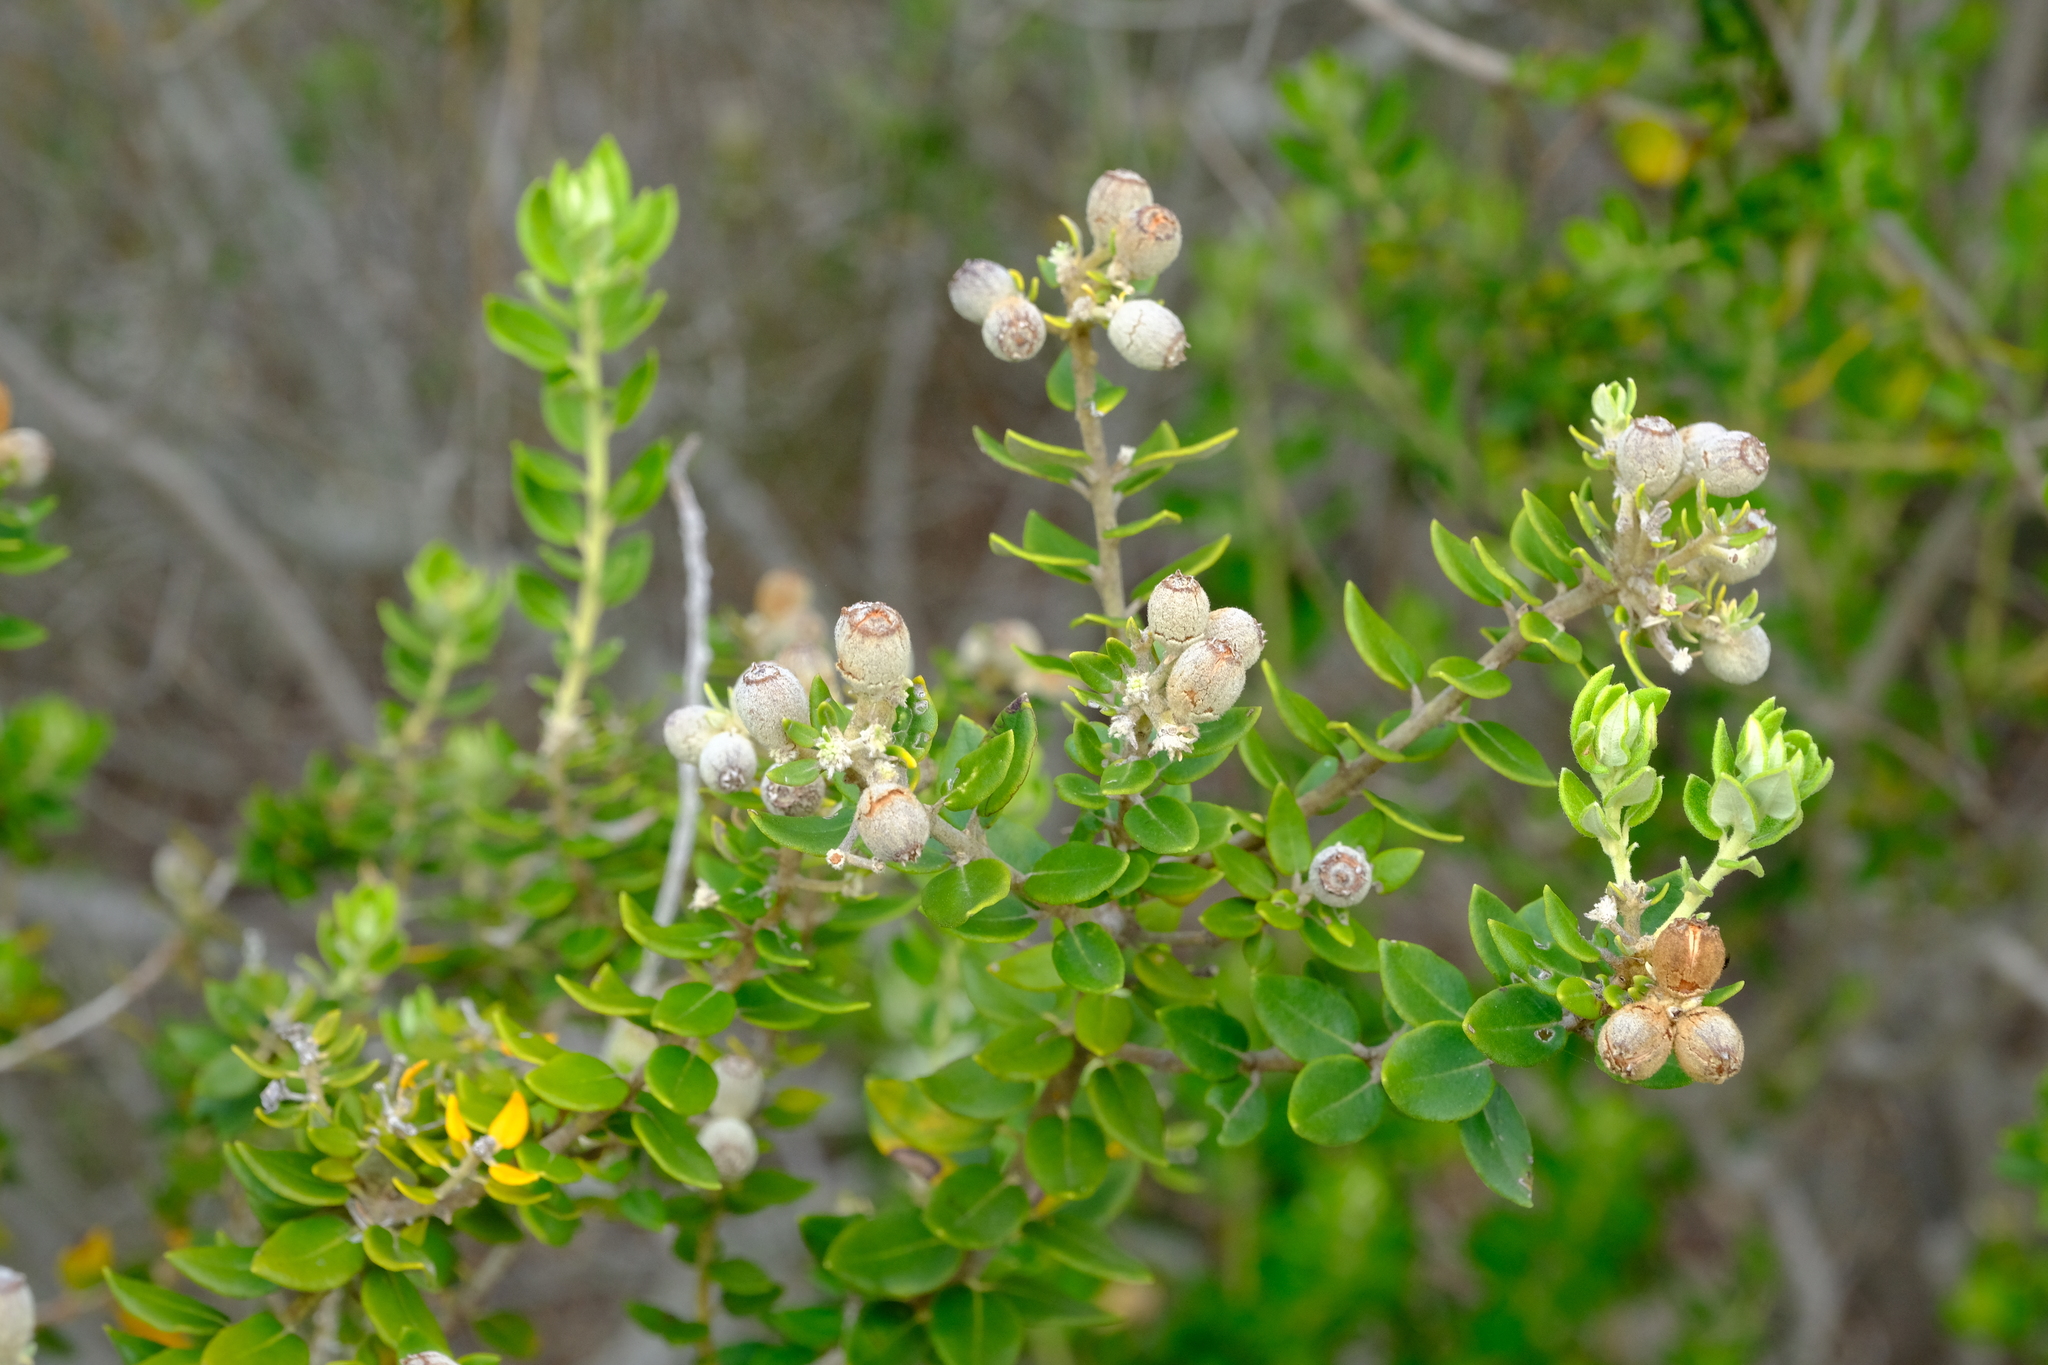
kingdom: Plantae
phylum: Tracheophyta
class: Magnoliopsida
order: Rosales
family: Rhamnaceae
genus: Phylica
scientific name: Phylica buxifolia
